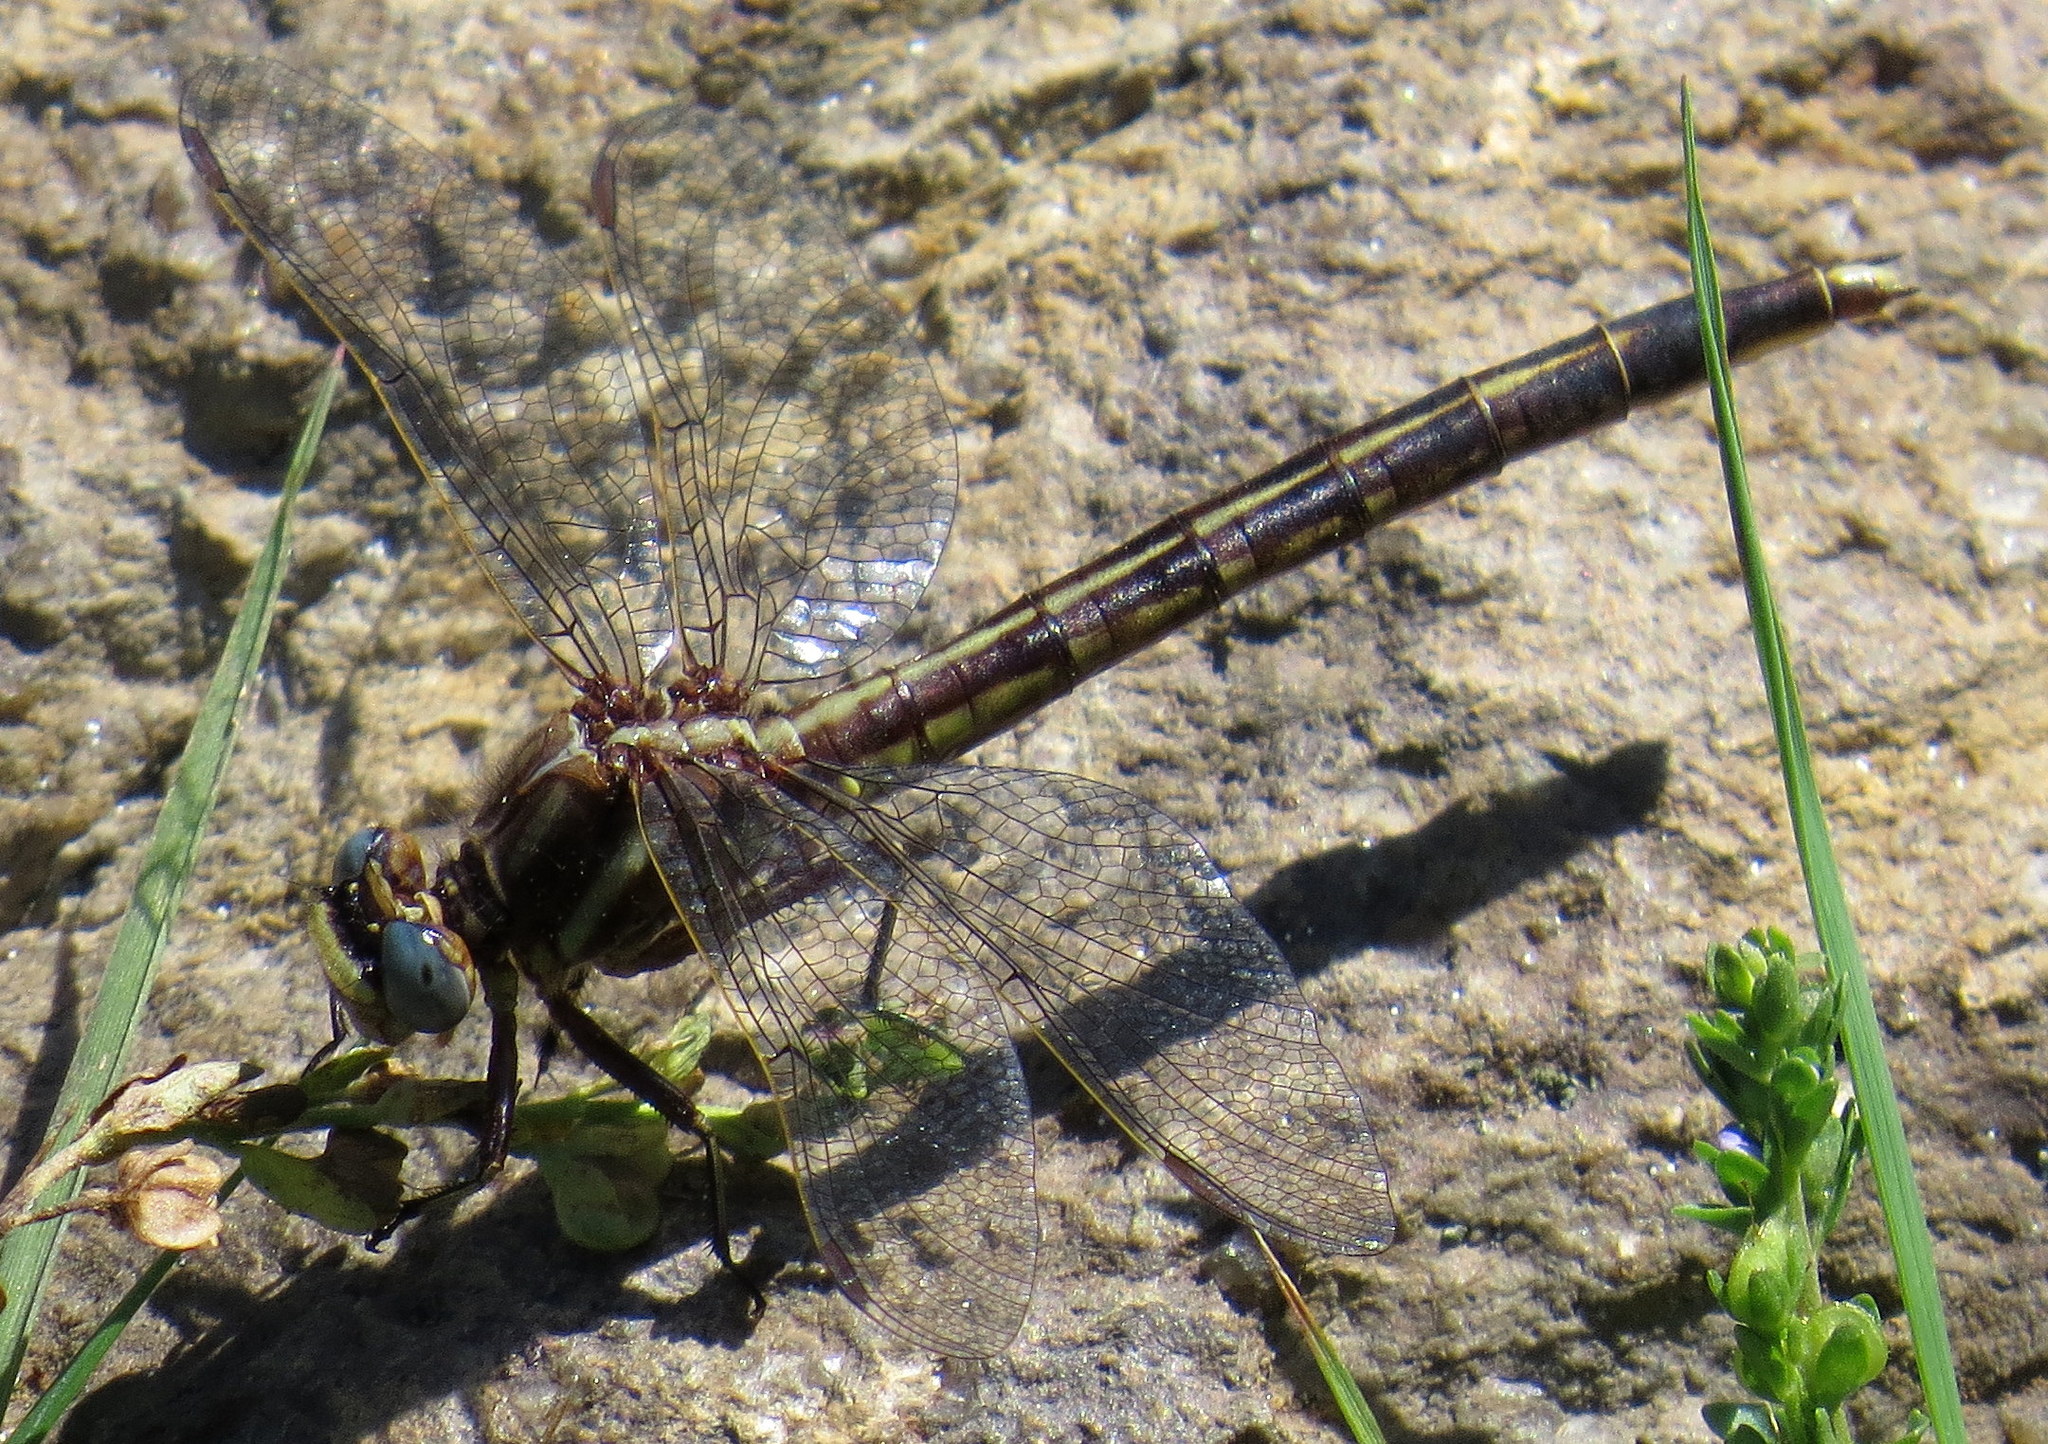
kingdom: Animalia
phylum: Arthropoda
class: Insecta
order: Odonata
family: Gomphidae
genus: Phanogomphus
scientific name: Phanogomphus spicatus
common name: Dusky clubtail
